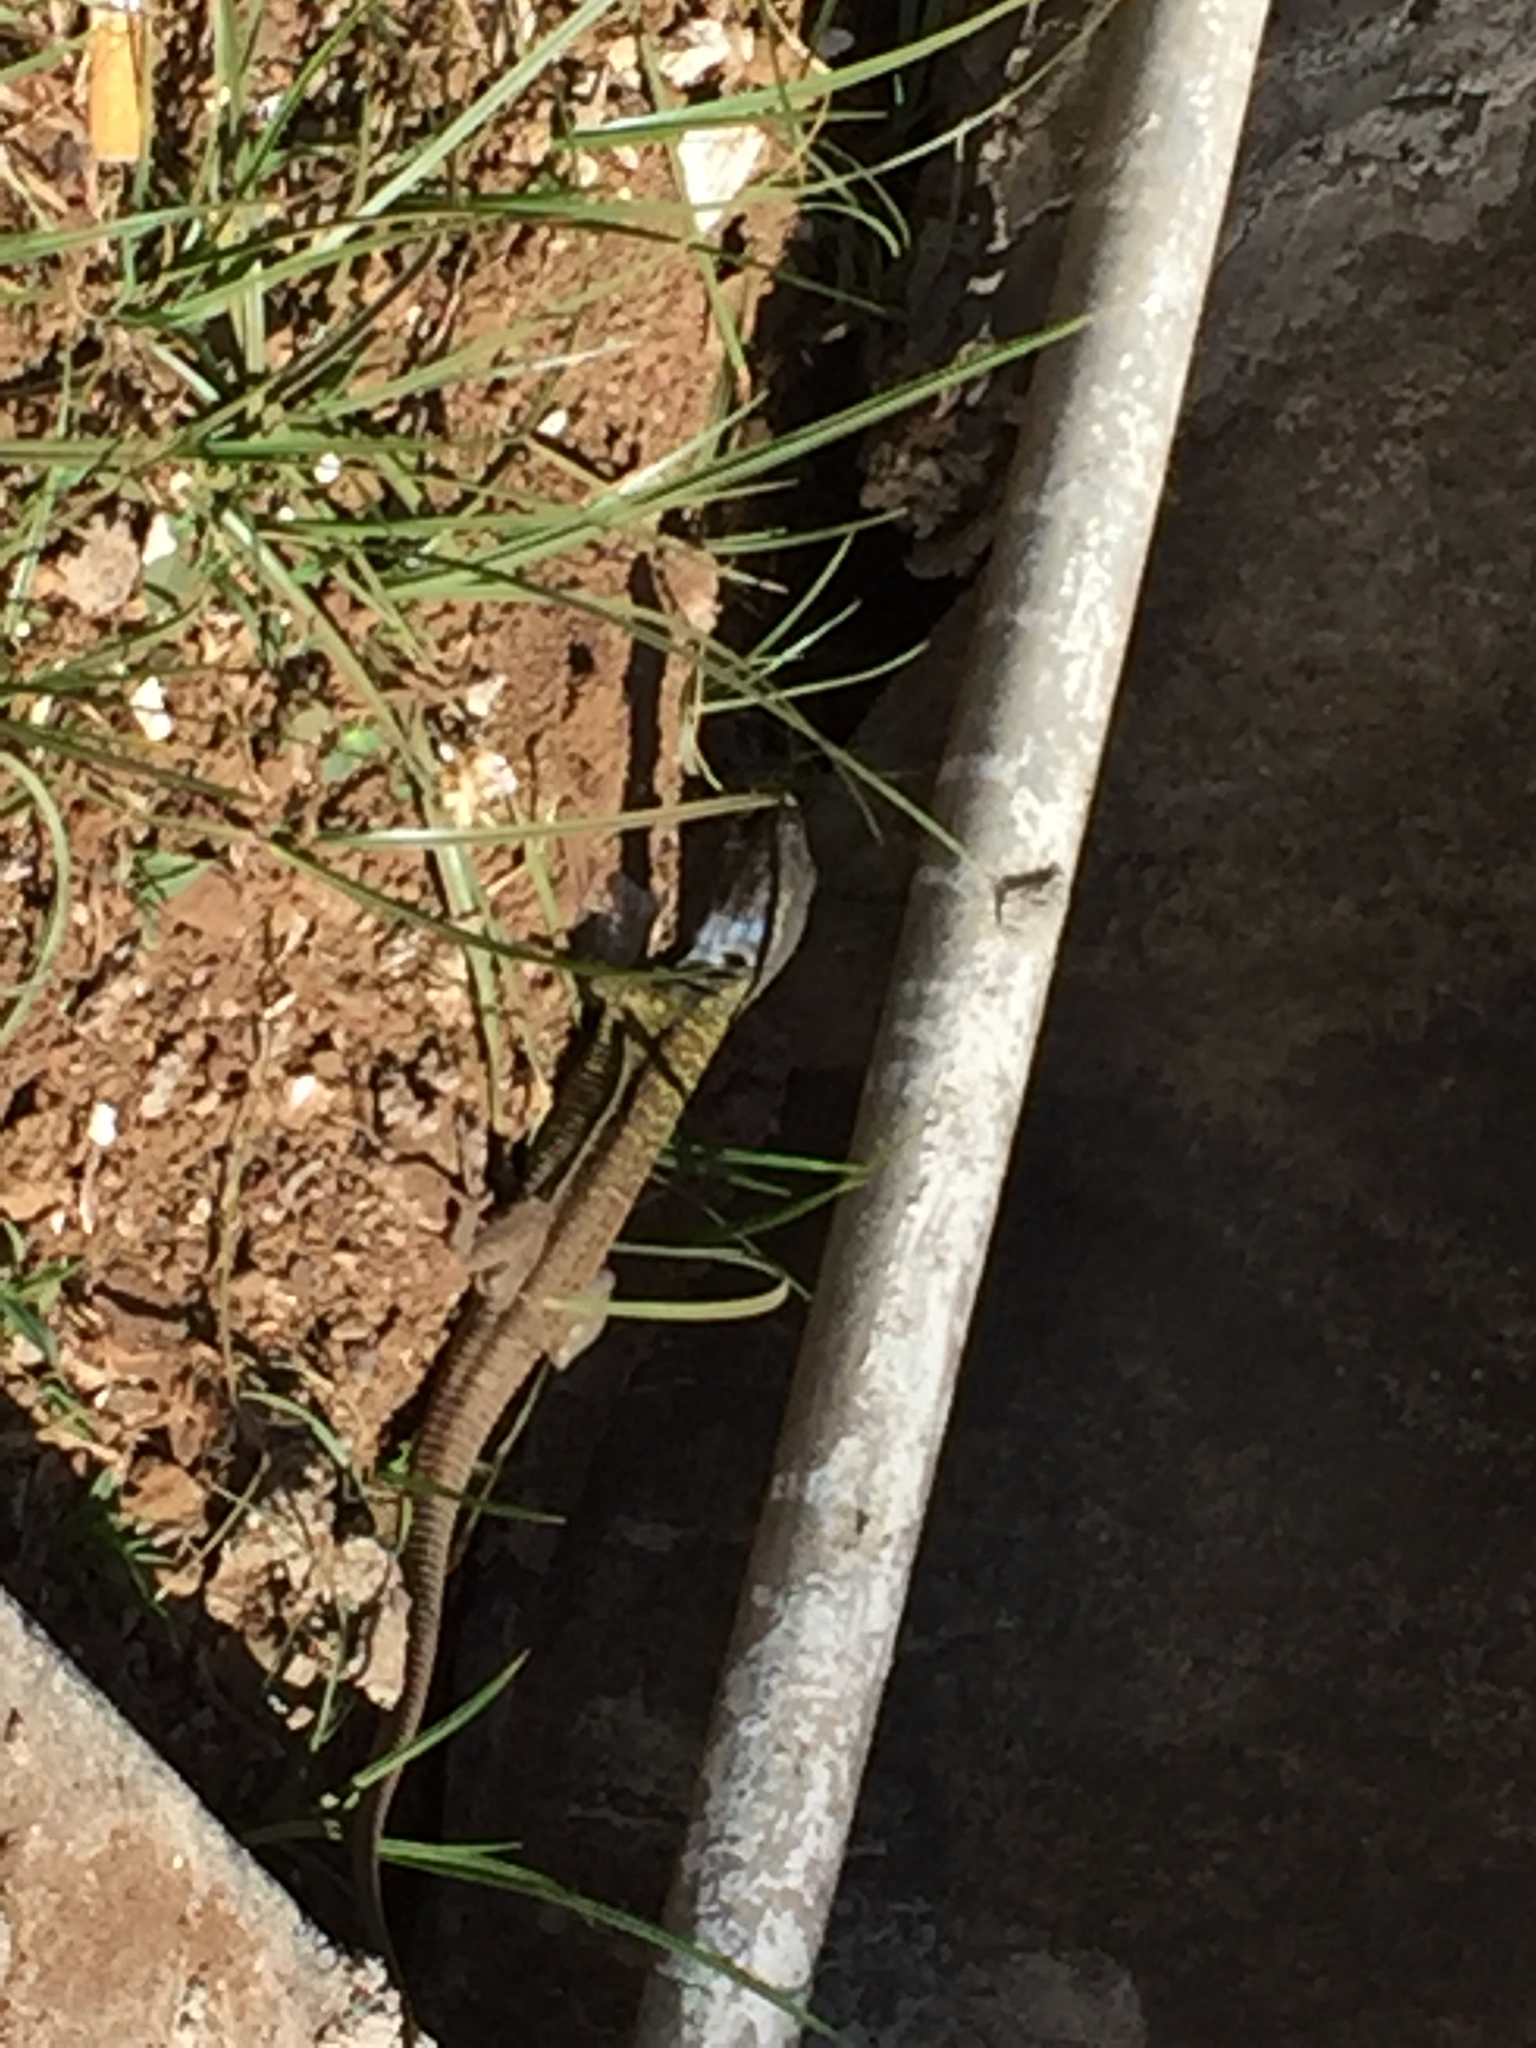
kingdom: Animalia
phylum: Chordata
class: Squamata
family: Lacertidae
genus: Gallotia
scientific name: Gallotia galloti
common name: Gallot's lizard
